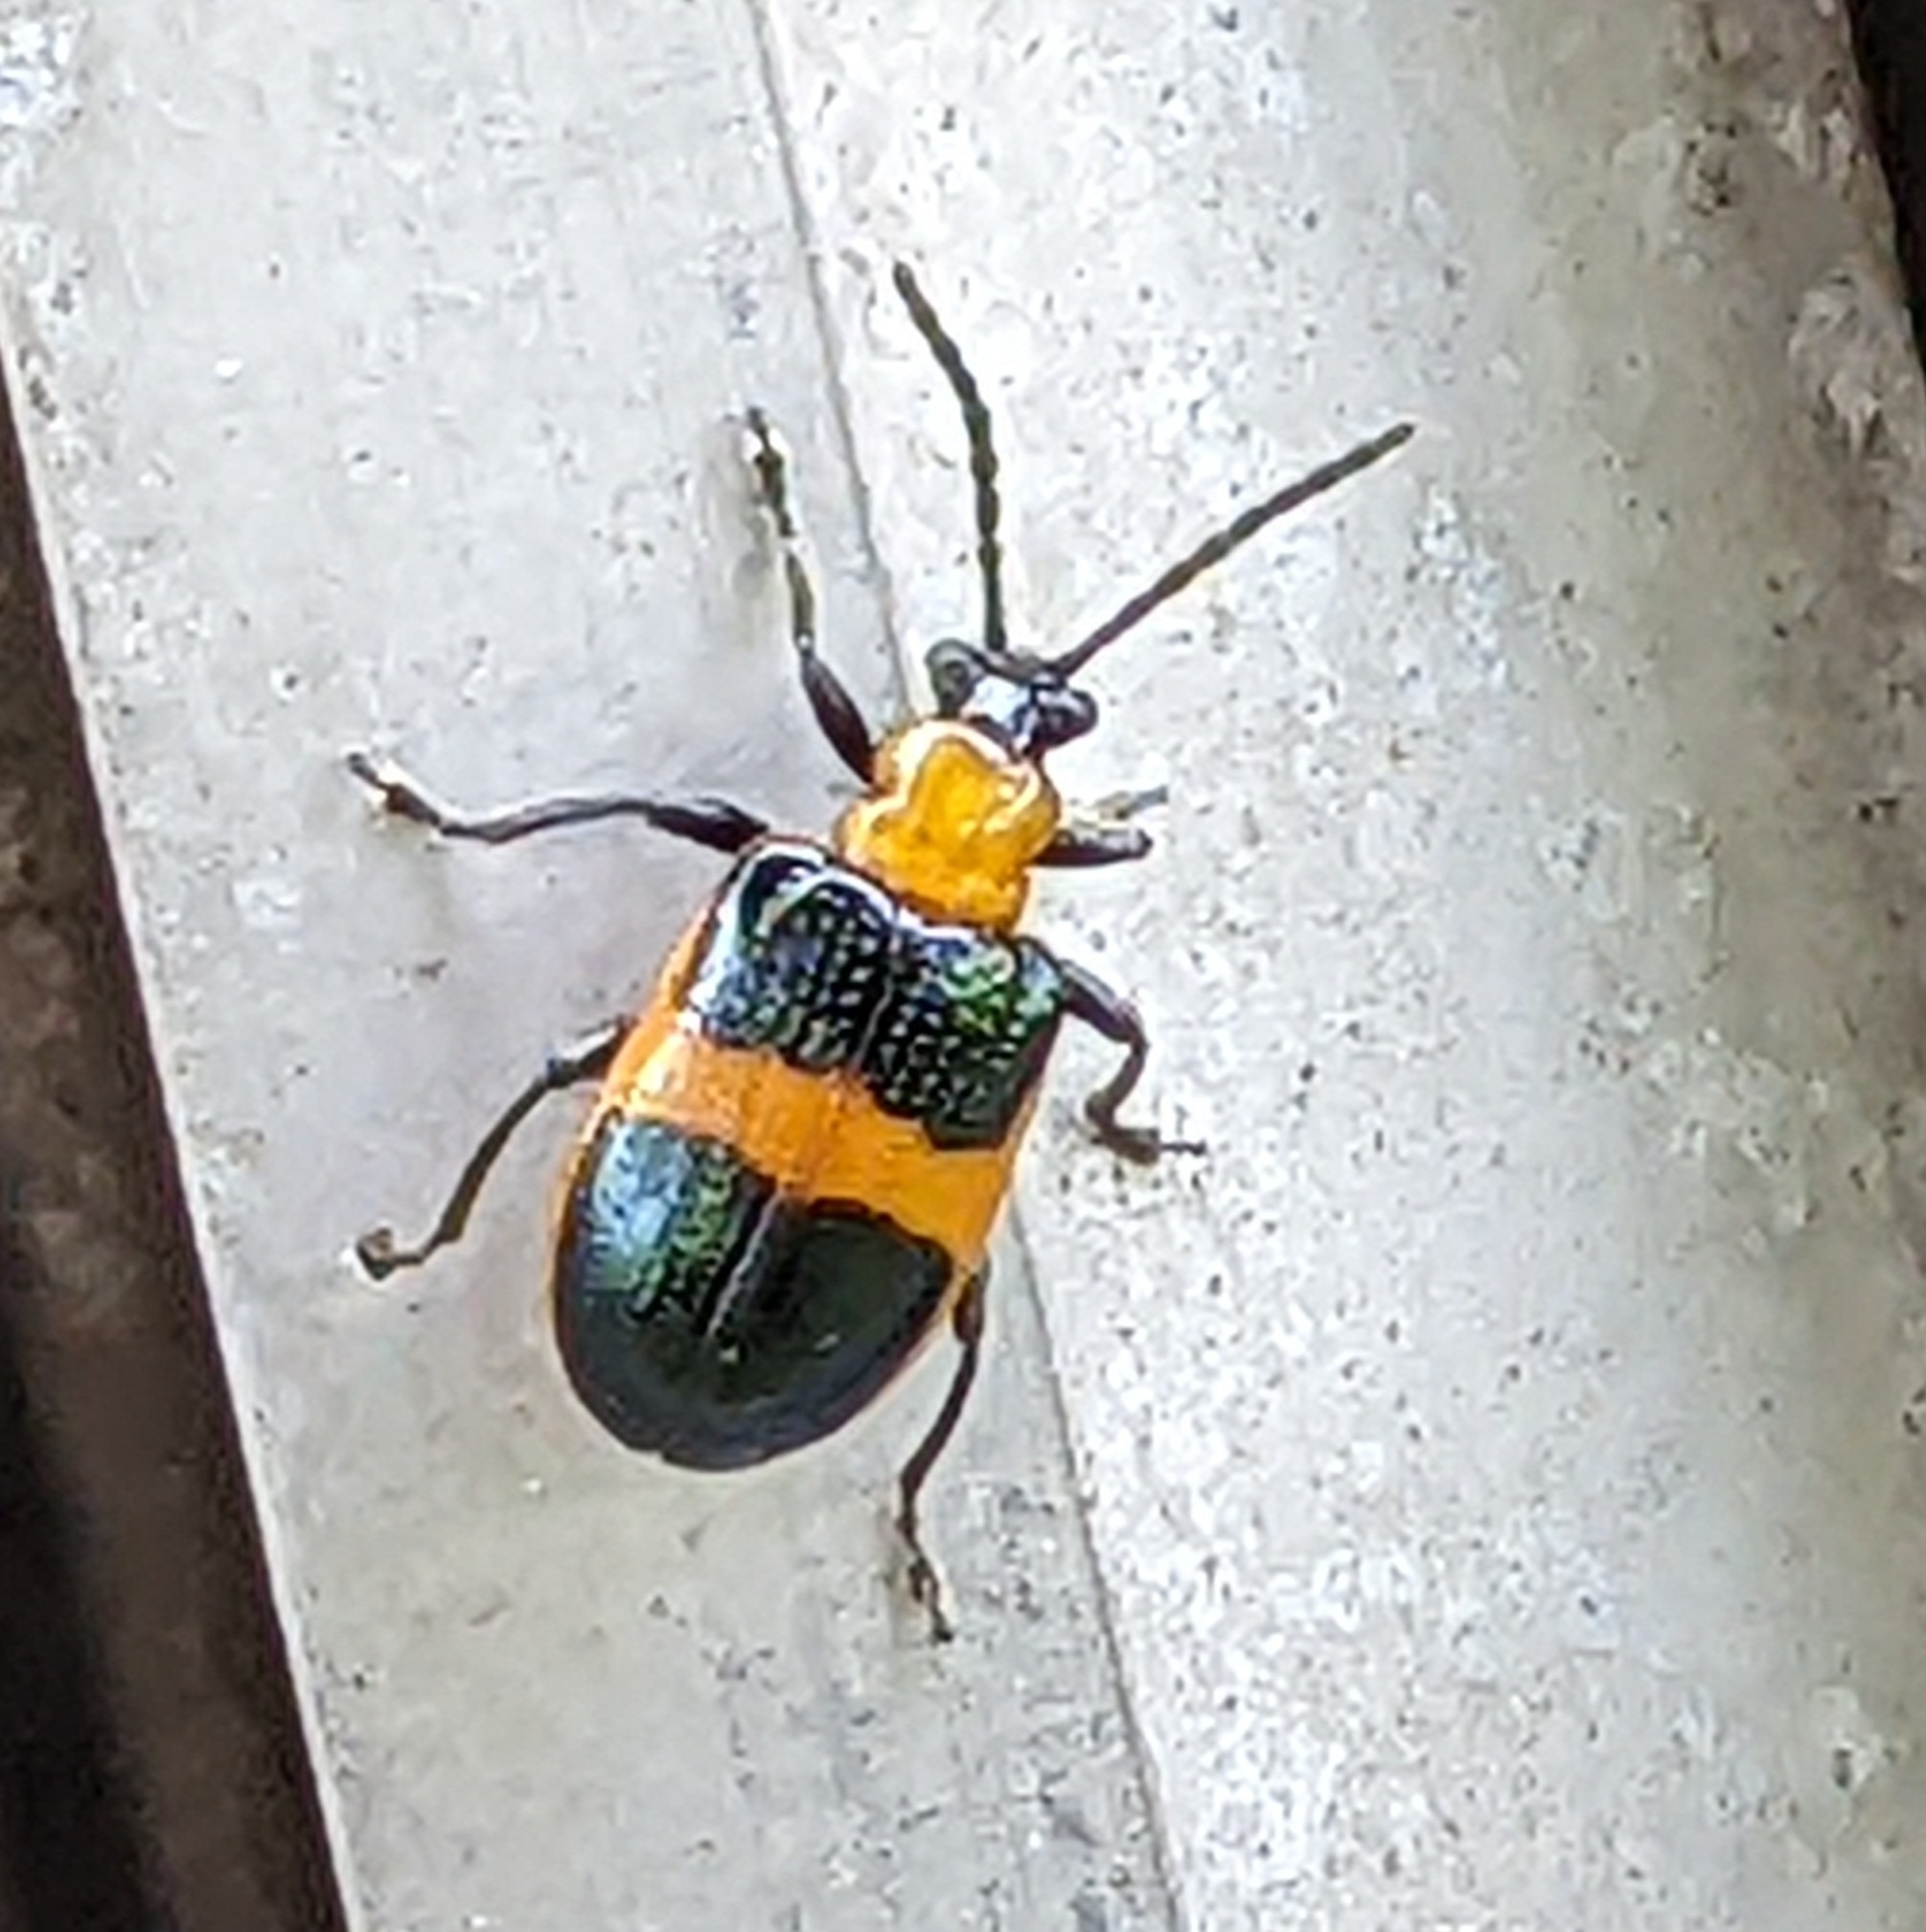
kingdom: Animalia
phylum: Arthropoda
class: Insecta
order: Coleoptera
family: Chrysomelidae
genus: Lema
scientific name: Lema solani
